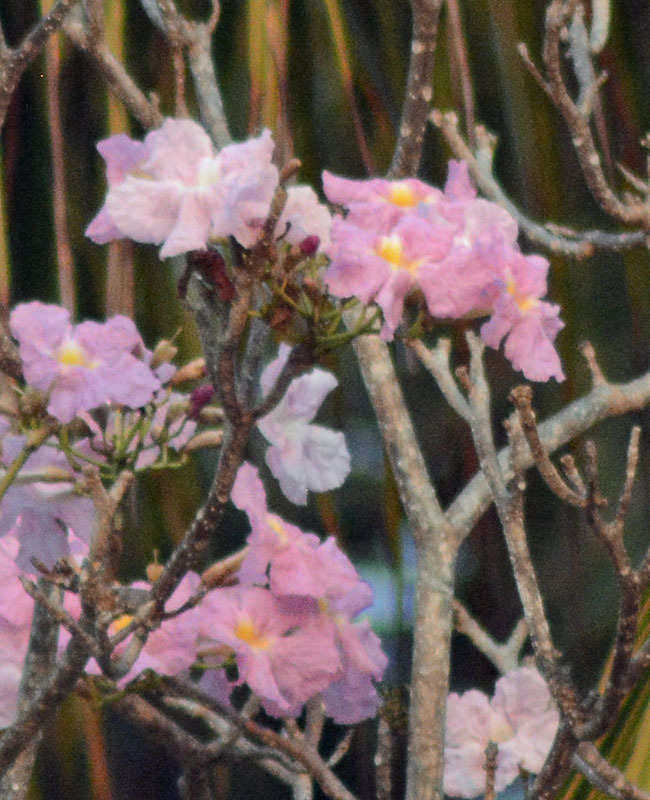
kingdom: Plantae
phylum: Tracheophyta
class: Magnoliopsida
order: Lamiales
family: Bignoniaceae
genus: Tabebuia
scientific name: Tabebuia rosea
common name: Pink poui
